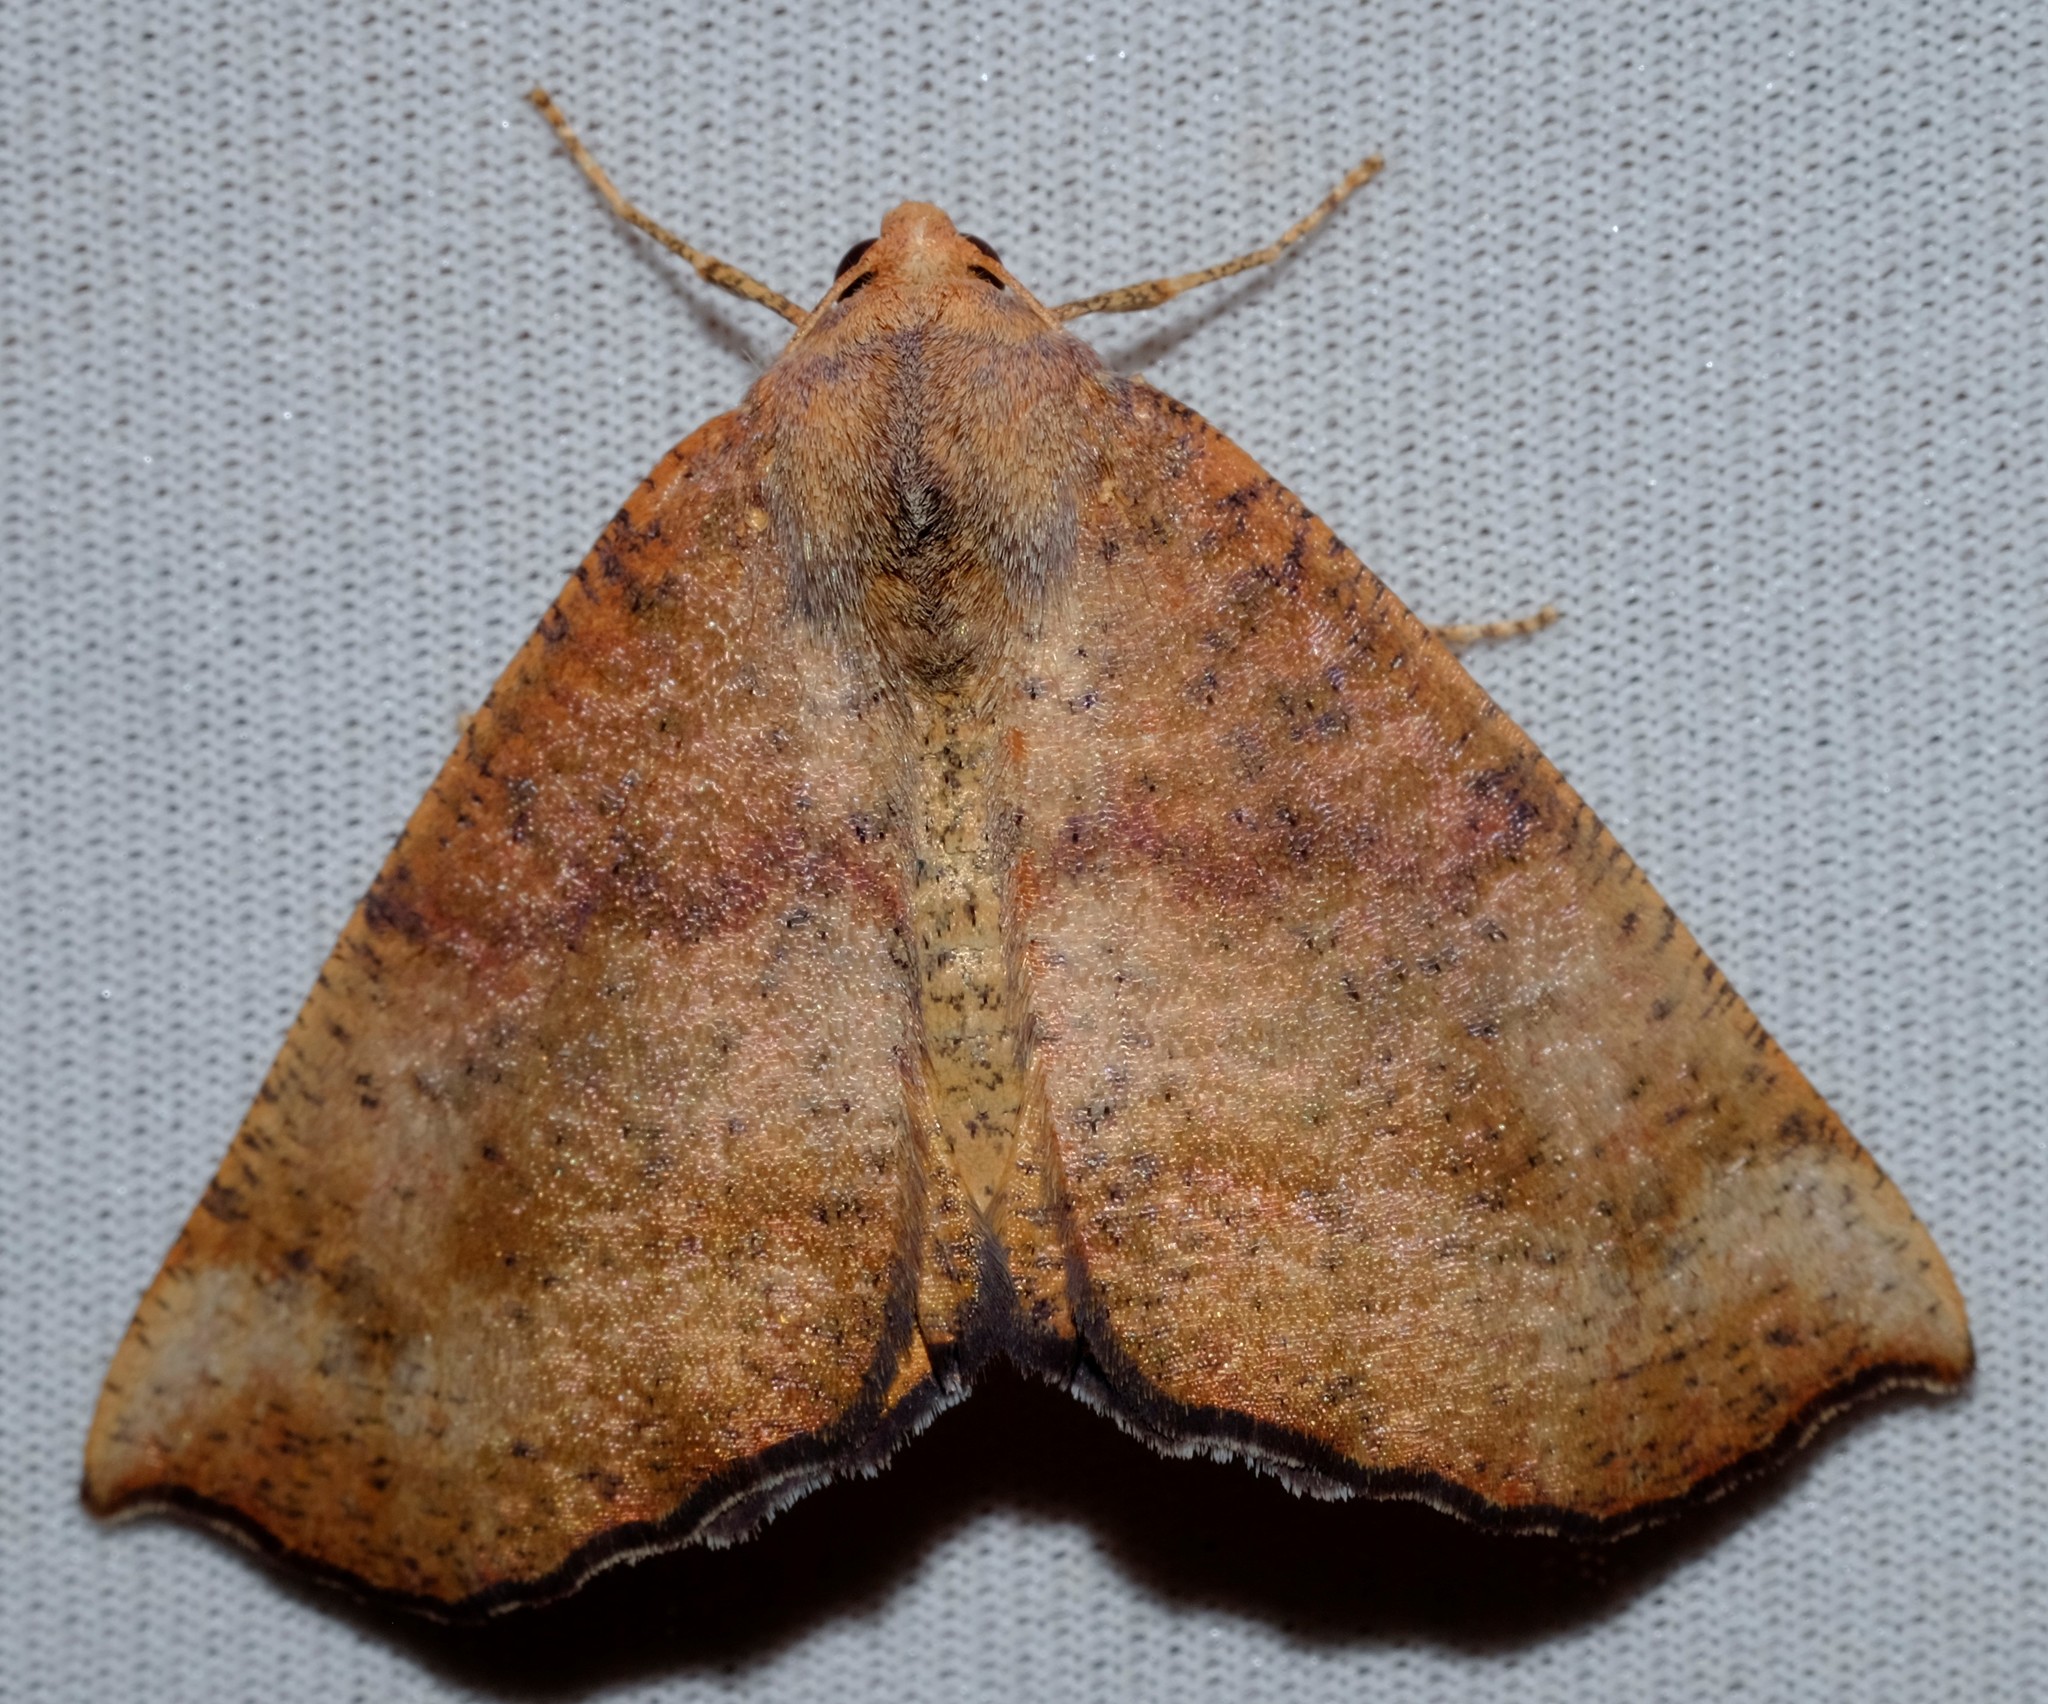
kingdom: Animalia
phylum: Arthropoda
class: Insecta
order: Lepidoptera
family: Geometridae
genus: Mnesampela
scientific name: Mnesampela privata
